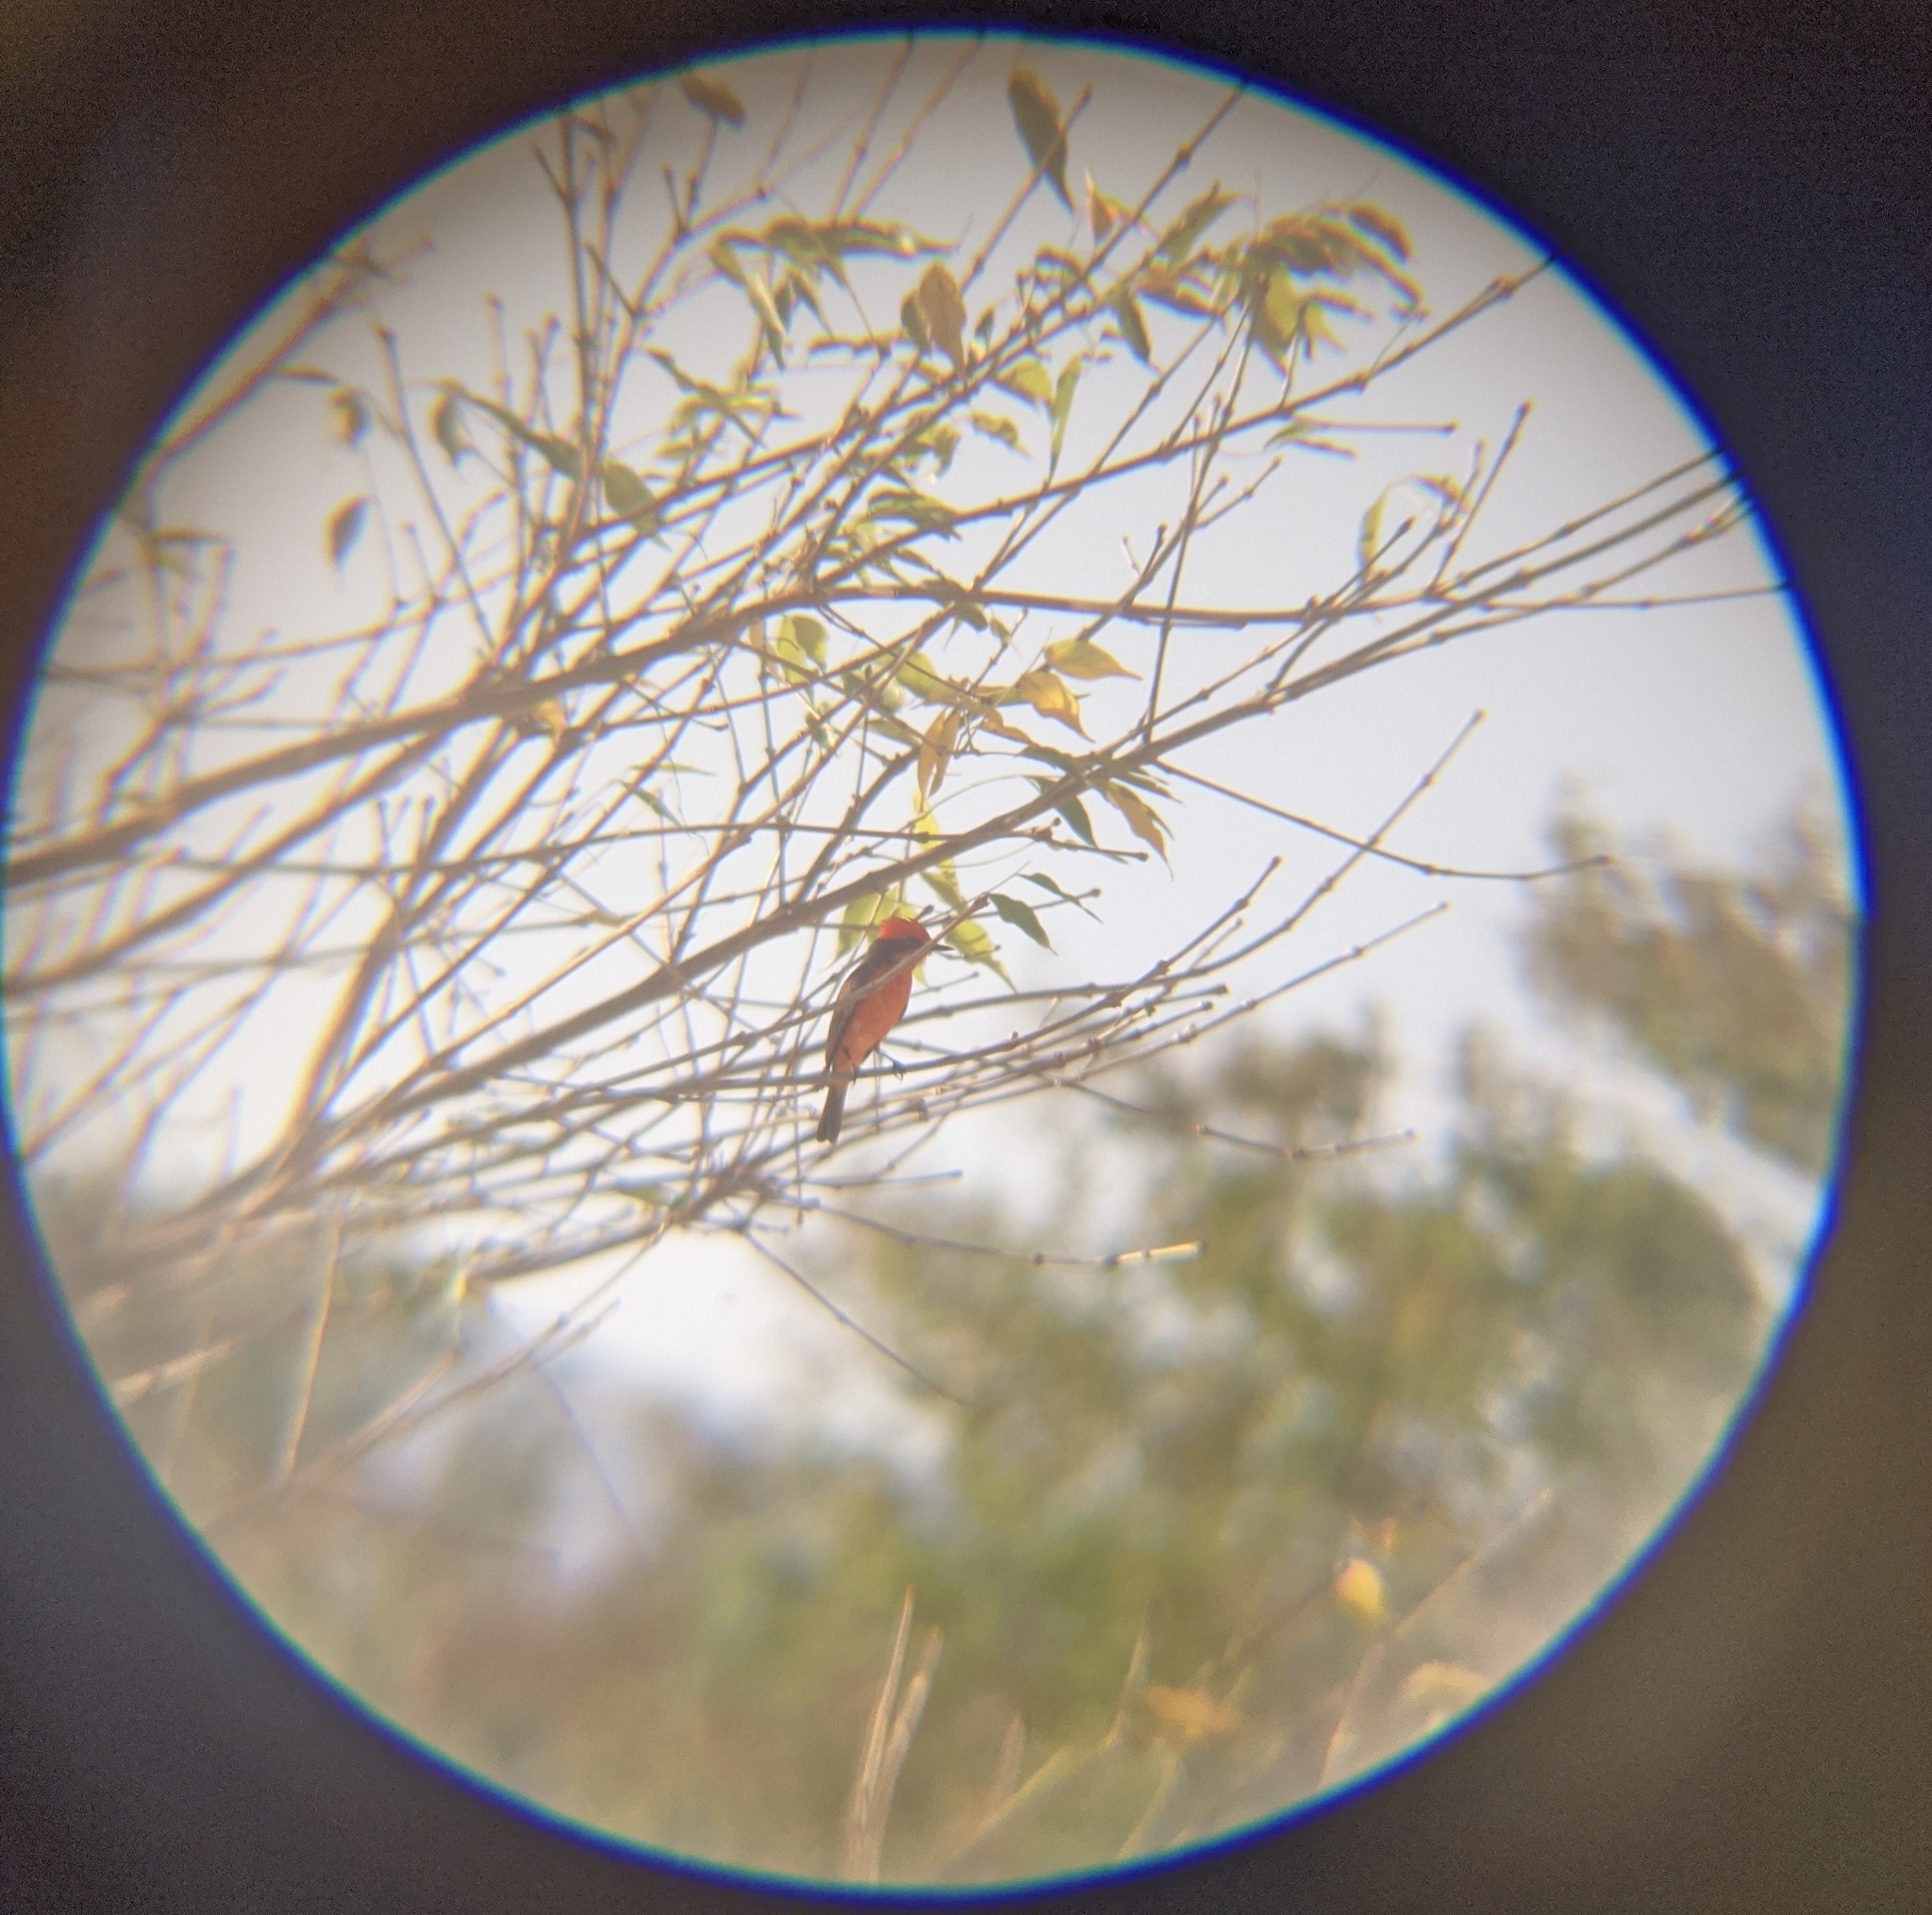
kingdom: Animalia
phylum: Chordata
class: Aves
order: Passeriformes
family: Tyrannidae
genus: Pyrocephalus
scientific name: Pyrocephalus rubinus
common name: Vermilion flycatcher
